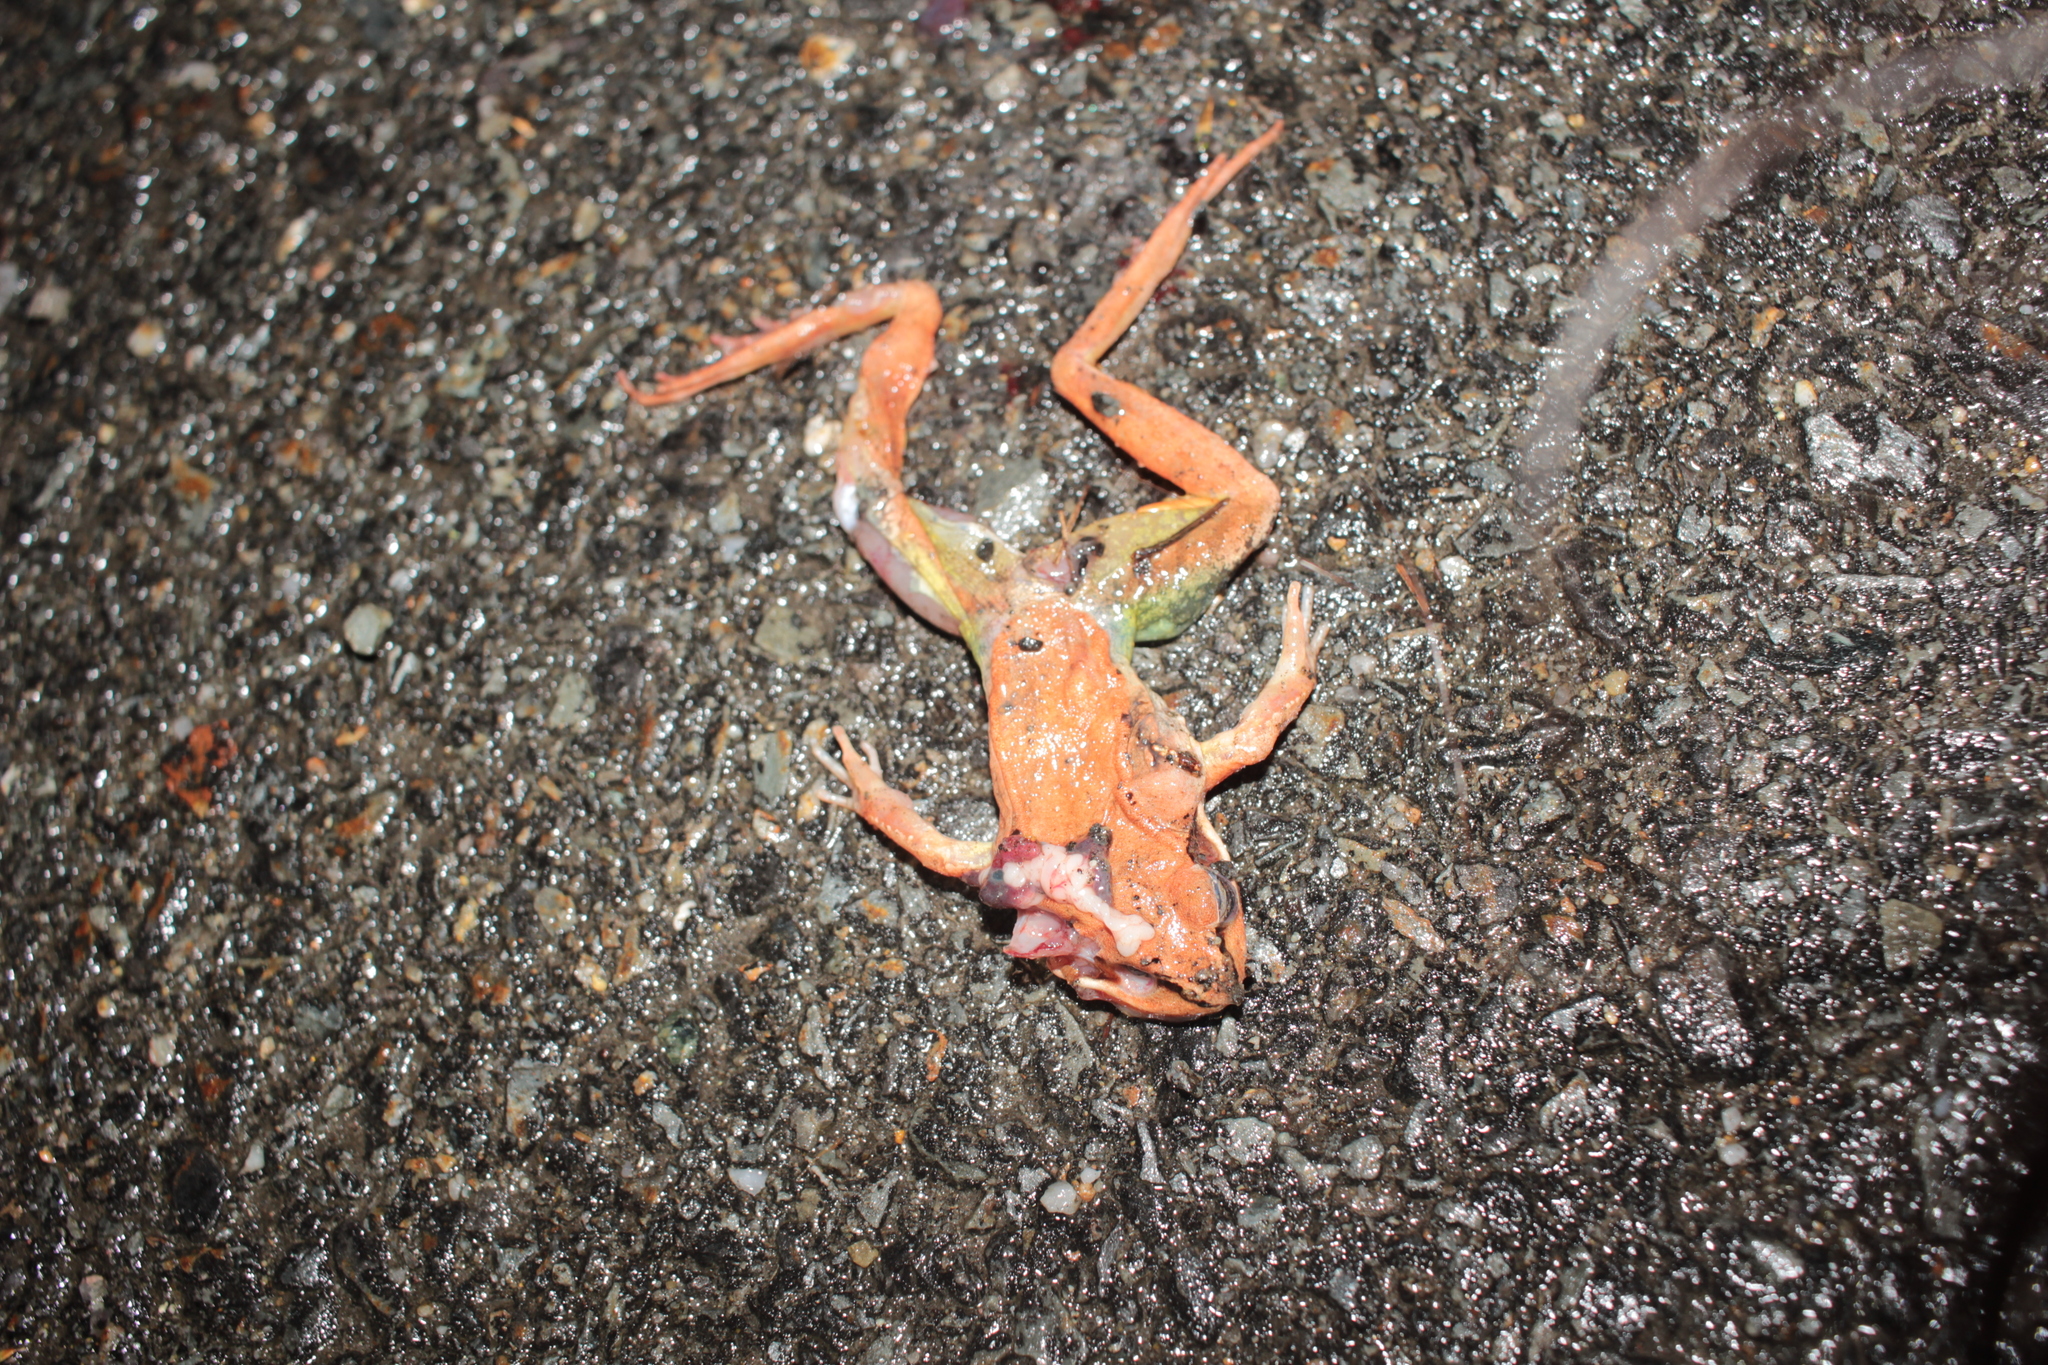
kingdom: Animalia
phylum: Chordata
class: Amphibia
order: Anura
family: Ranidae
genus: Lithobates
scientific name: Lithobates sylvaticus
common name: Wood frog
